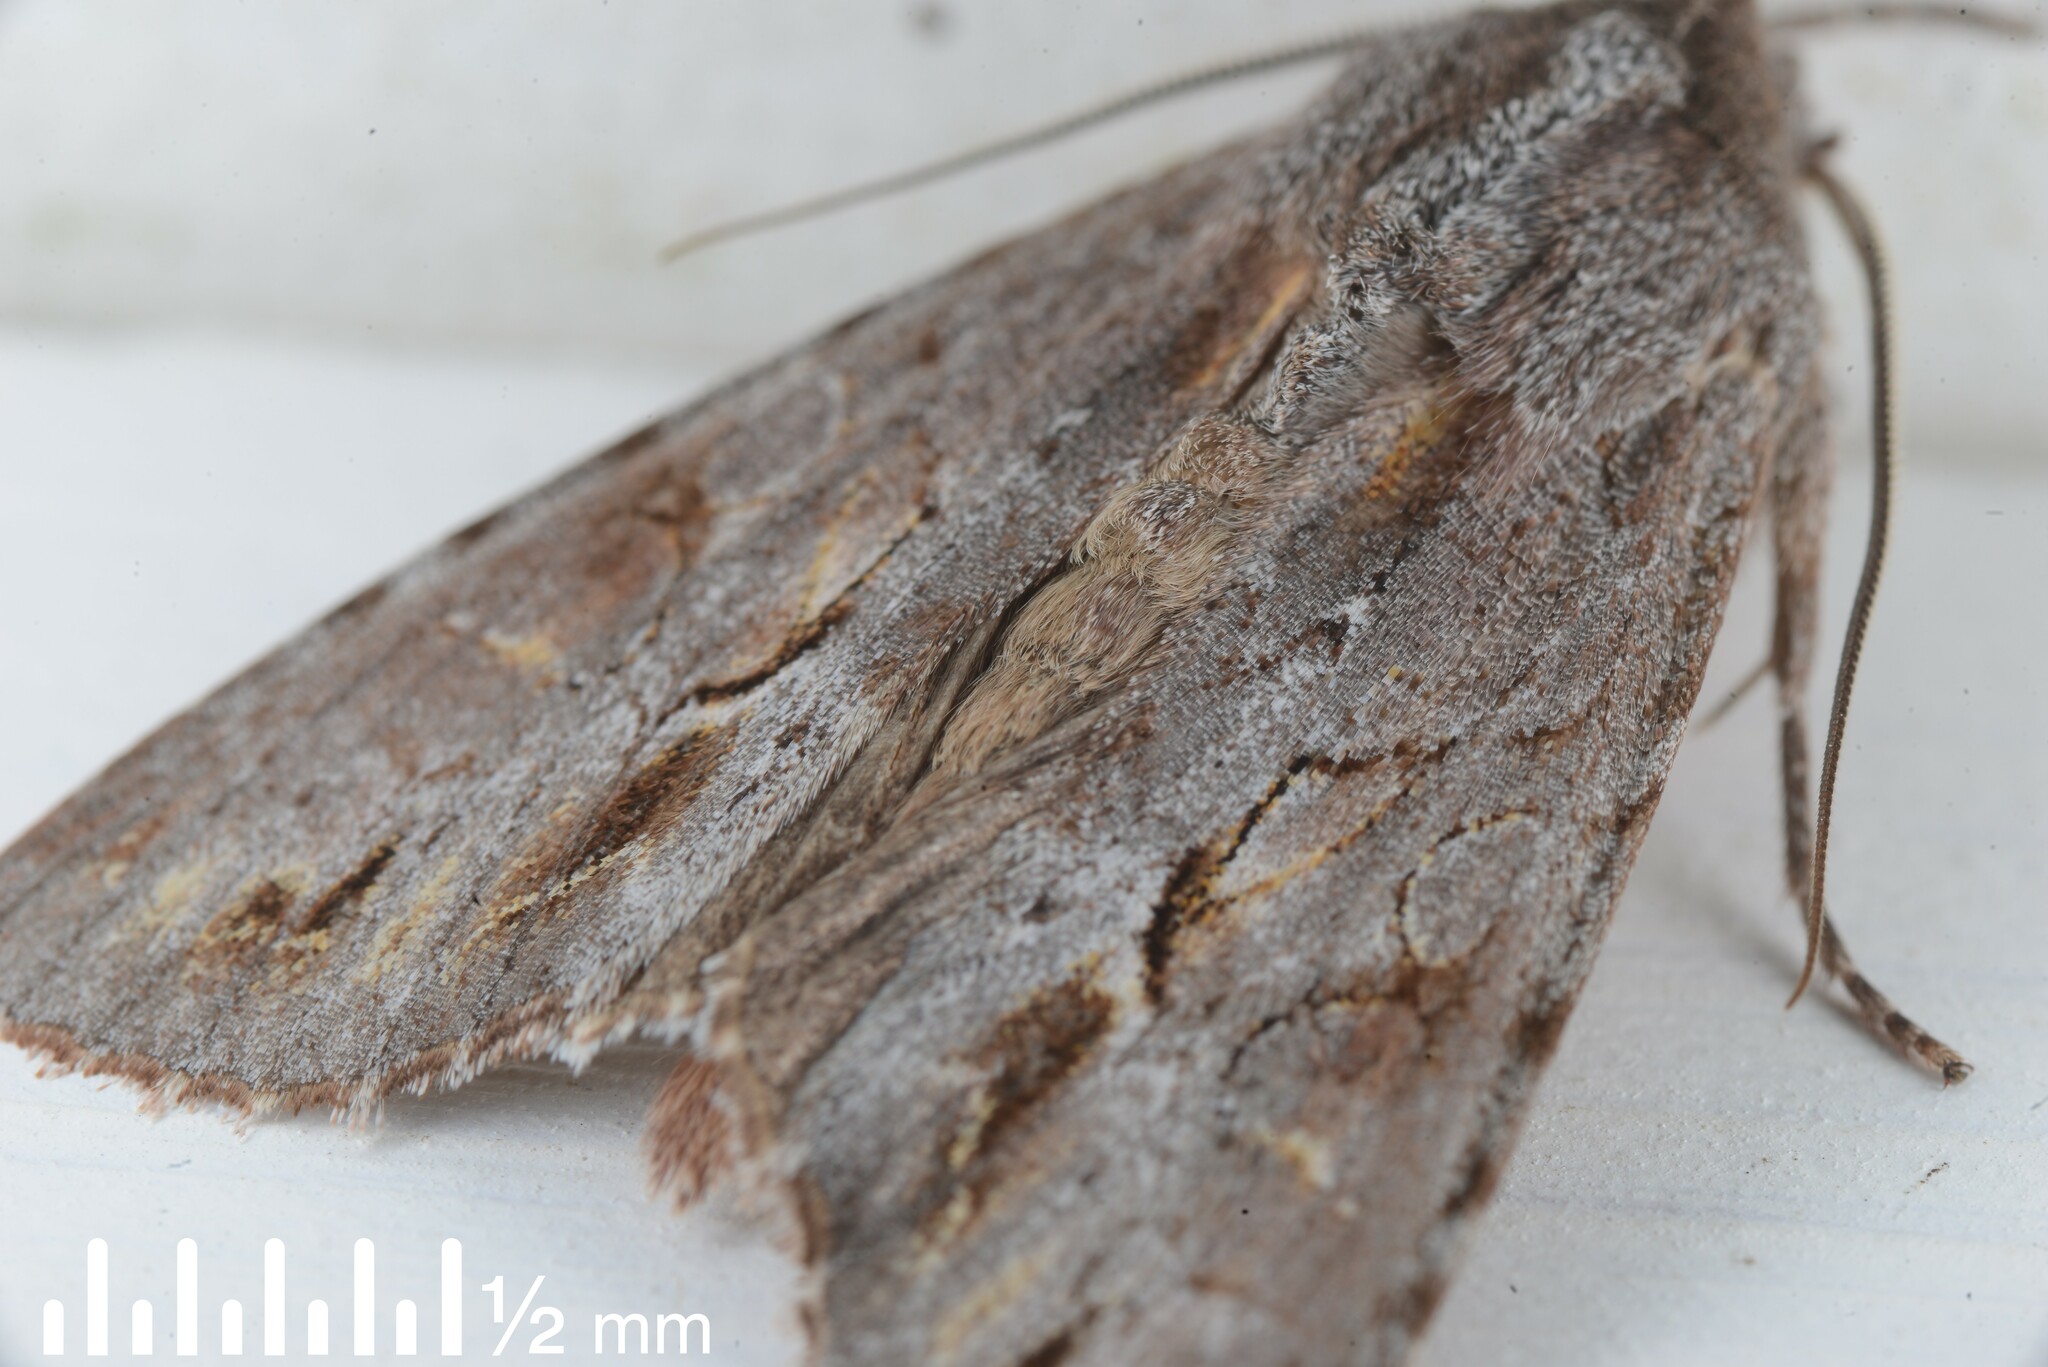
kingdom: Animalia
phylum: Arthropoda
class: Insecta
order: Lepidoptera
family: Noctuidae
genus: Ichneutica
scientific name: Ichneutica
